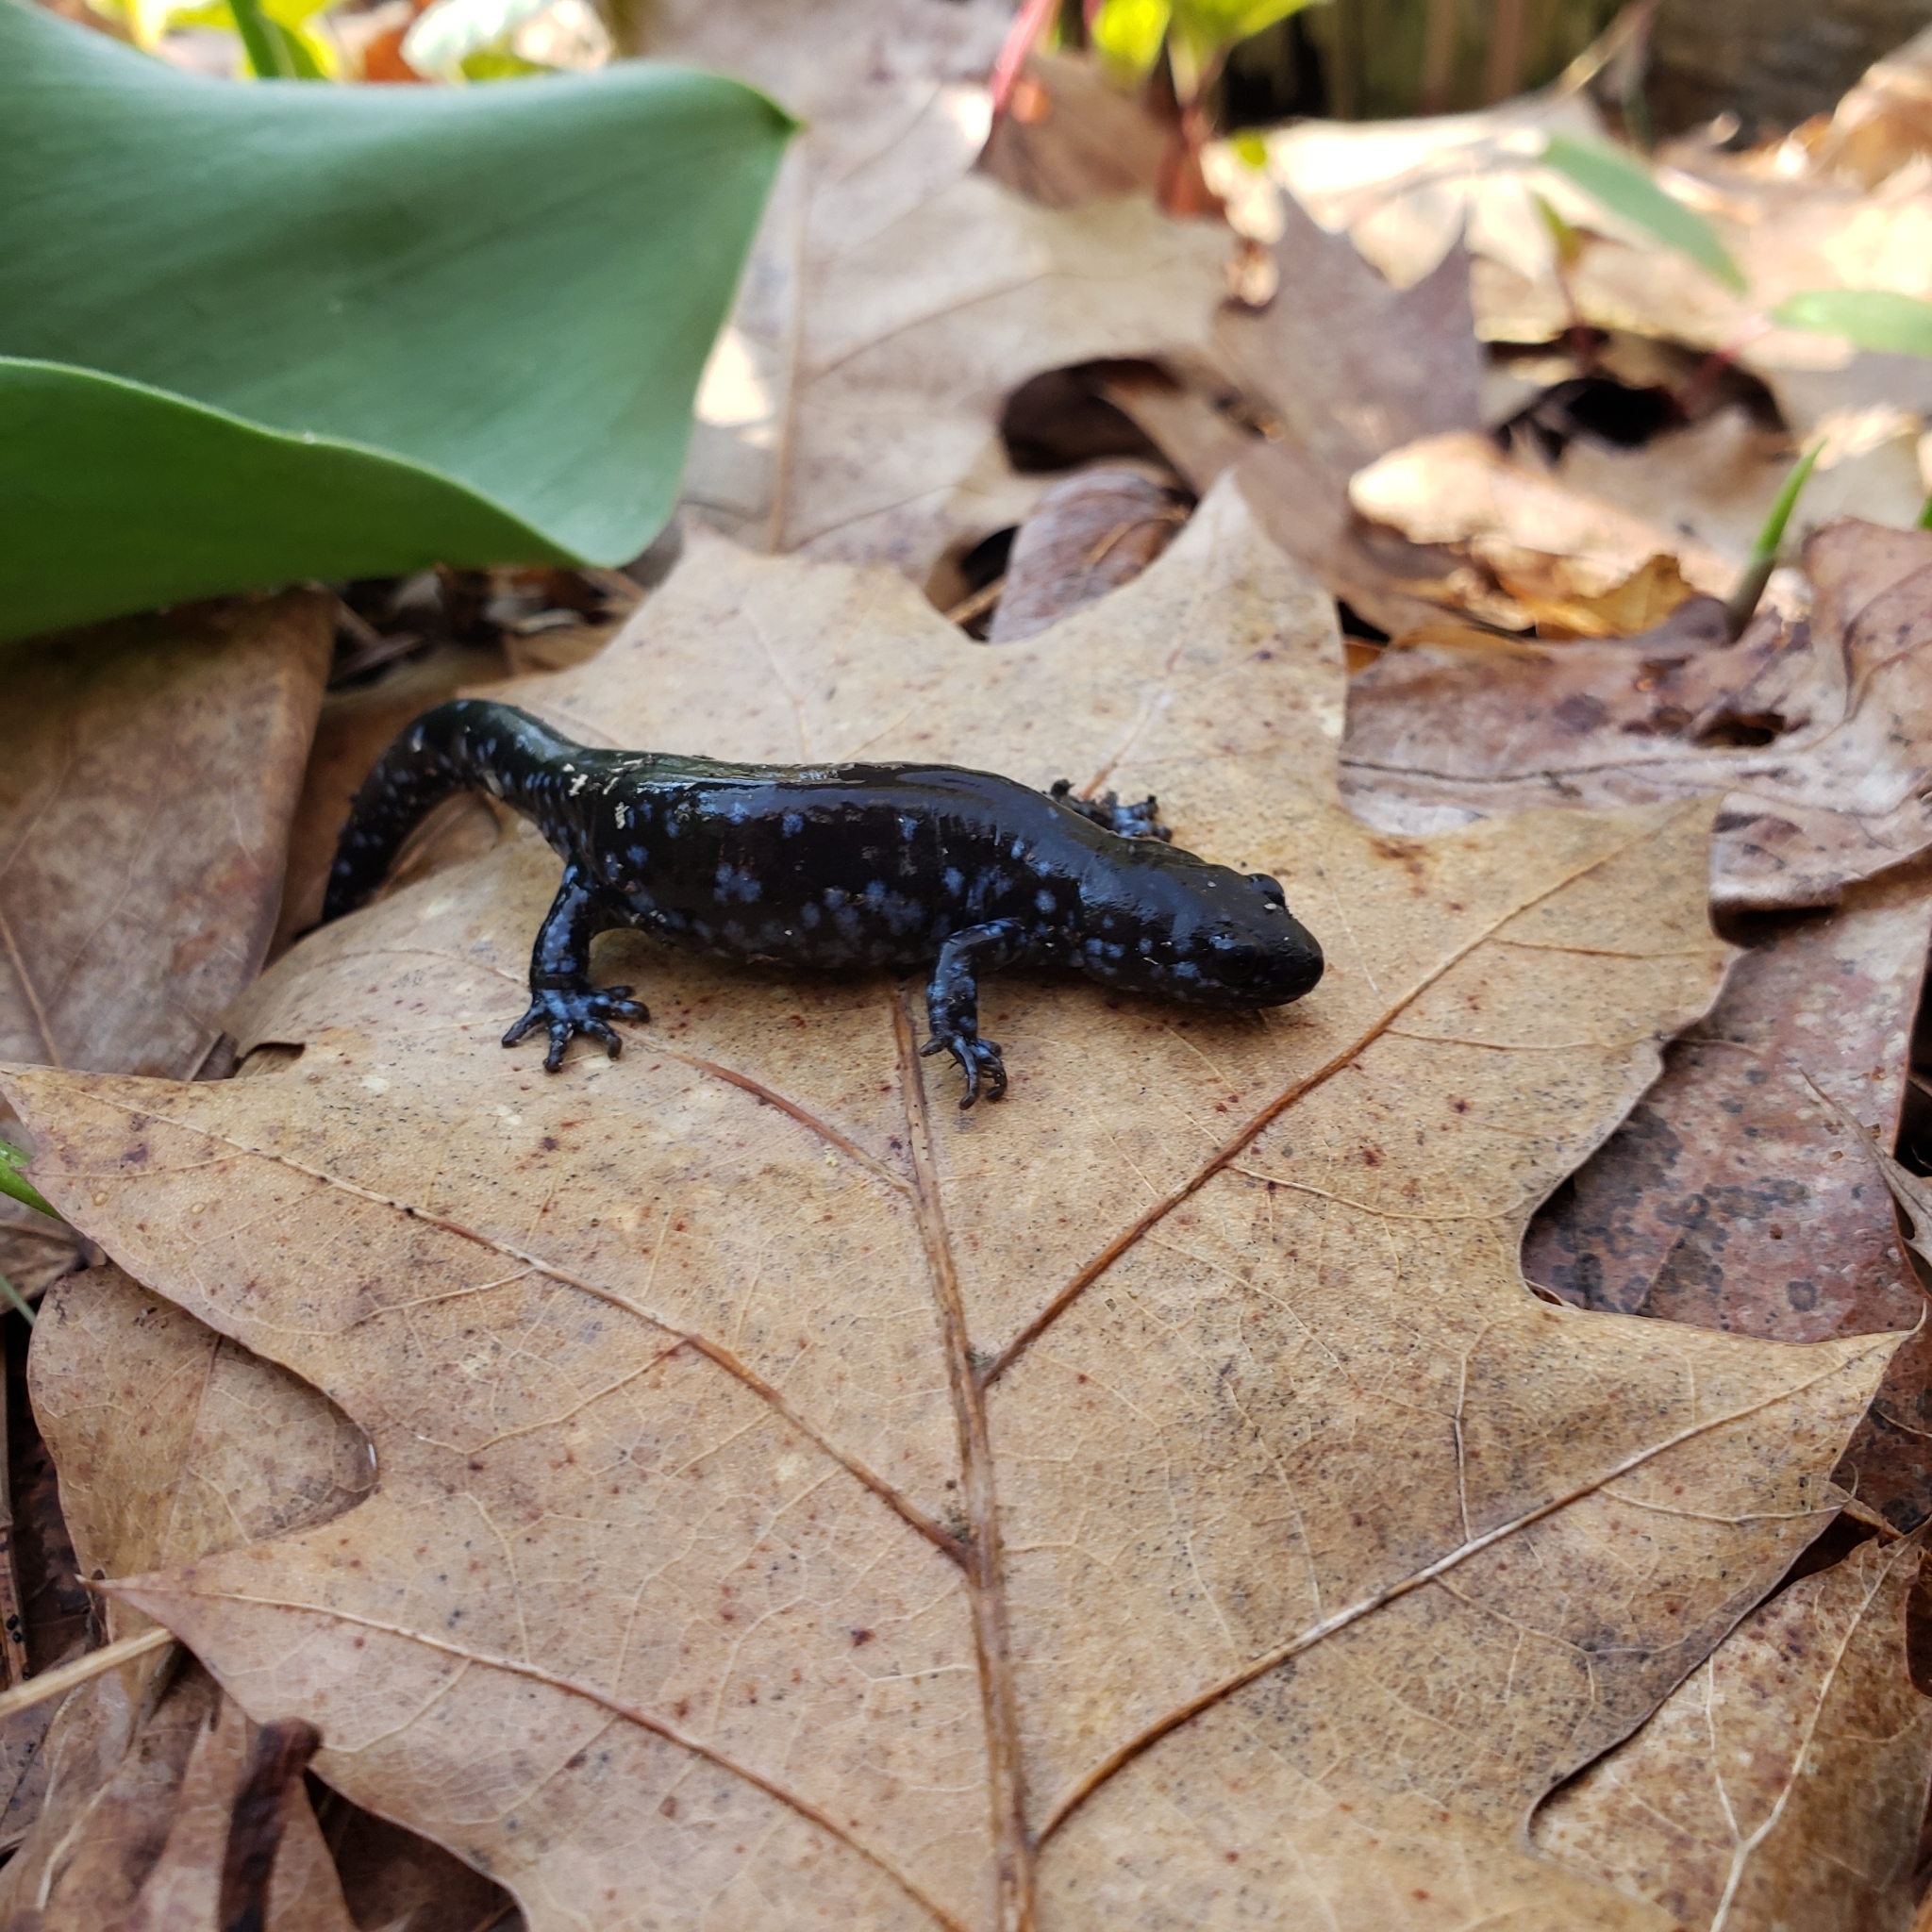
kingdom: Animalia
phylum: Chordata
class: Amphibia
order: Caudata
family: Ambystomatidae
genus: Ambystoma
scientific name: Ambystoma laterale
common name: Blue-spotted salamander
